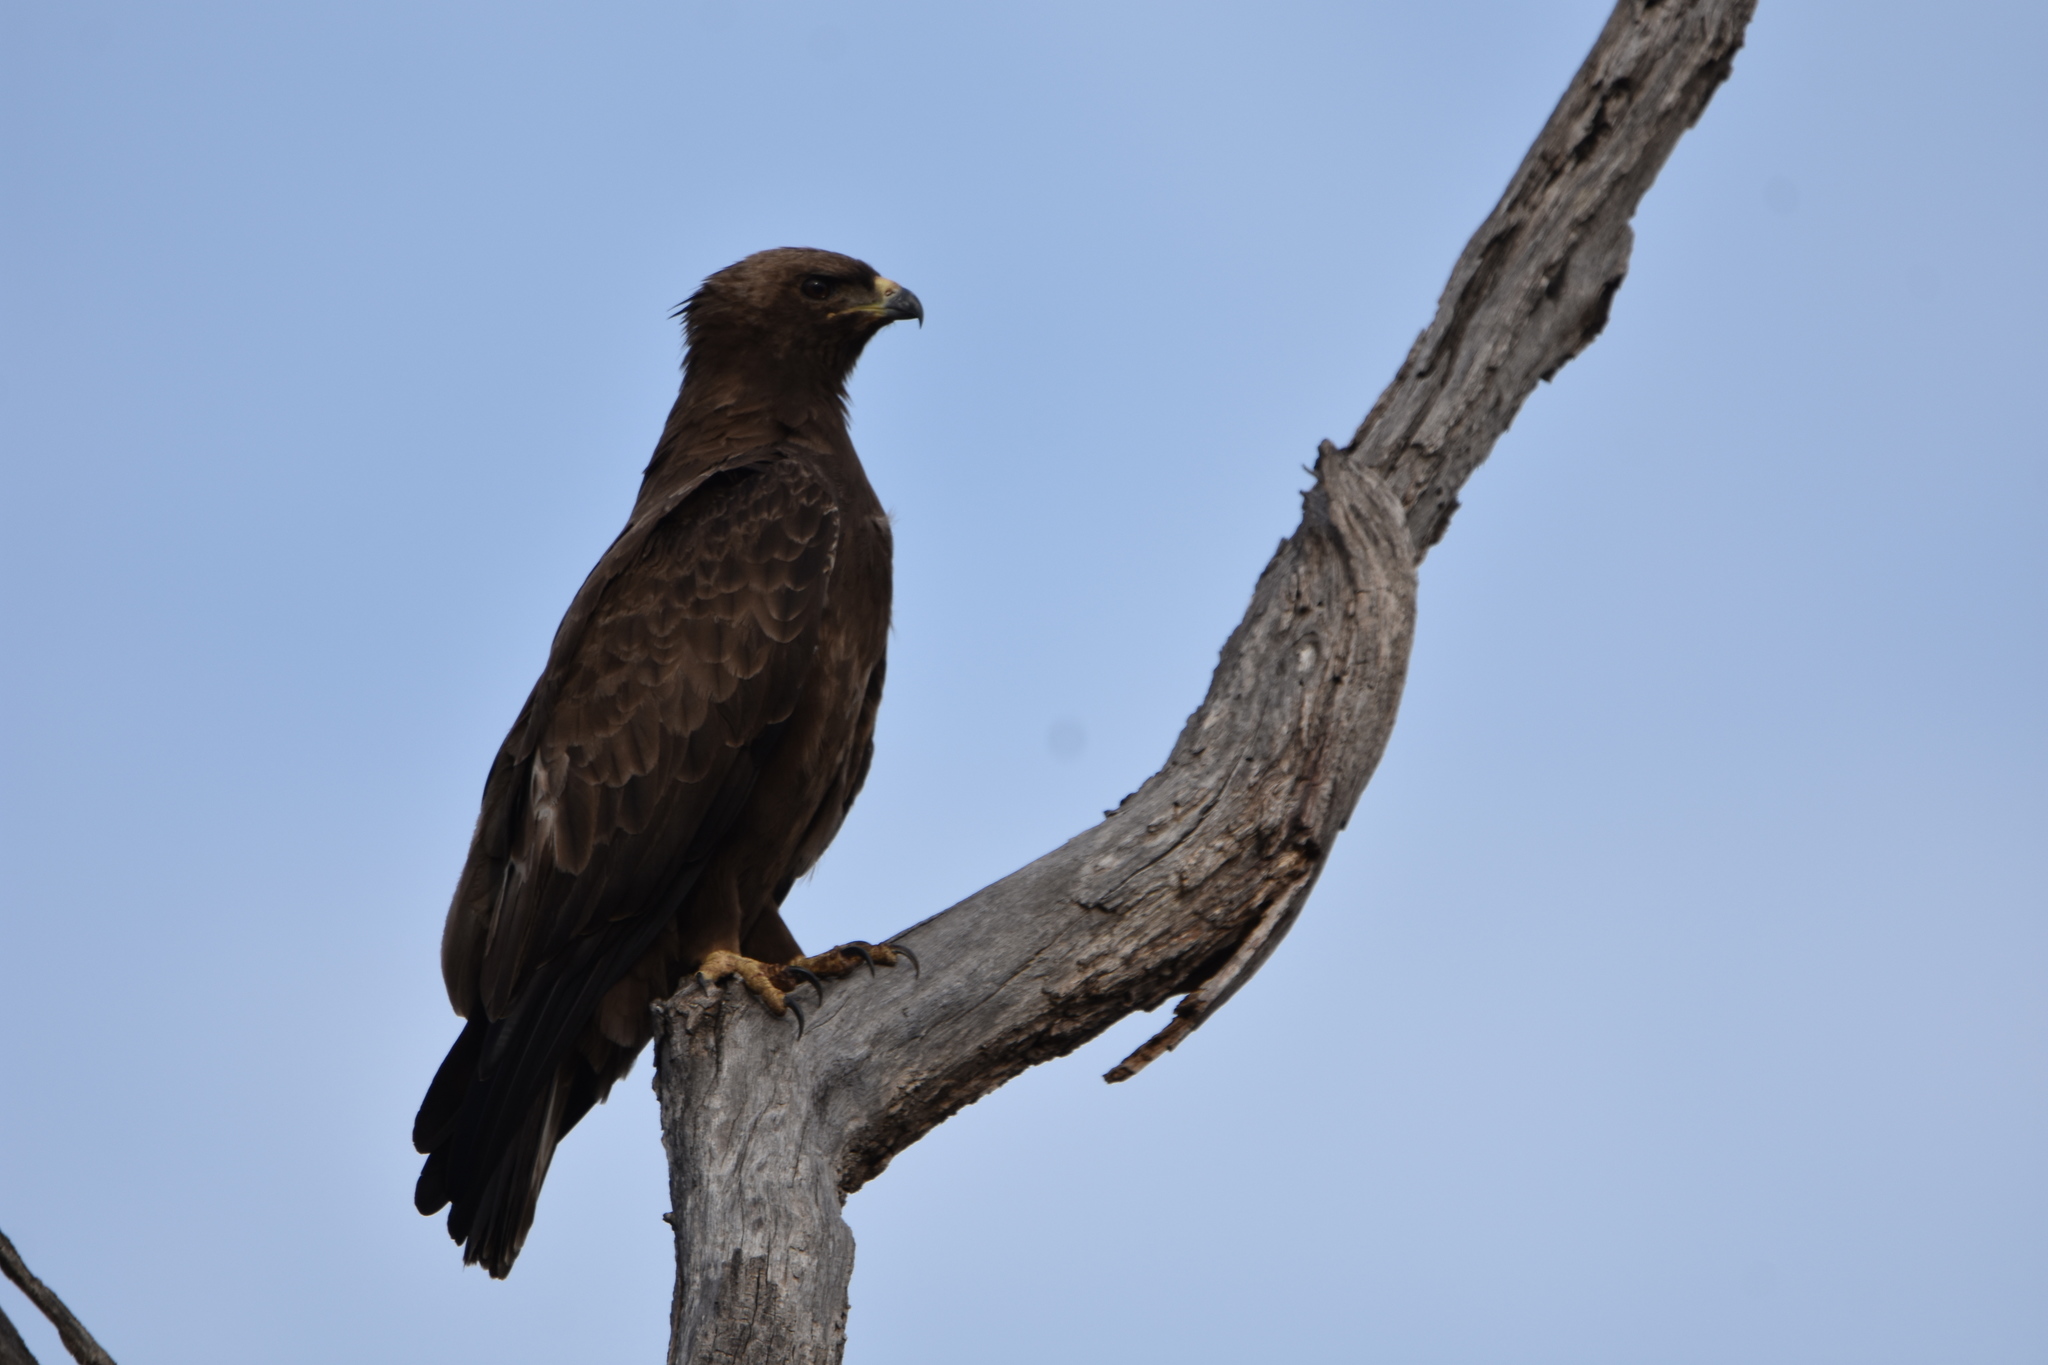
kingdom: Animalia
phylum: Chordata
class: Aves
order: Accipitriformes
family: Accipitridae
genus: Hieraaetus
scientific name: Hieraaetus wahlbergi
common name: Wahlberg's eagle
